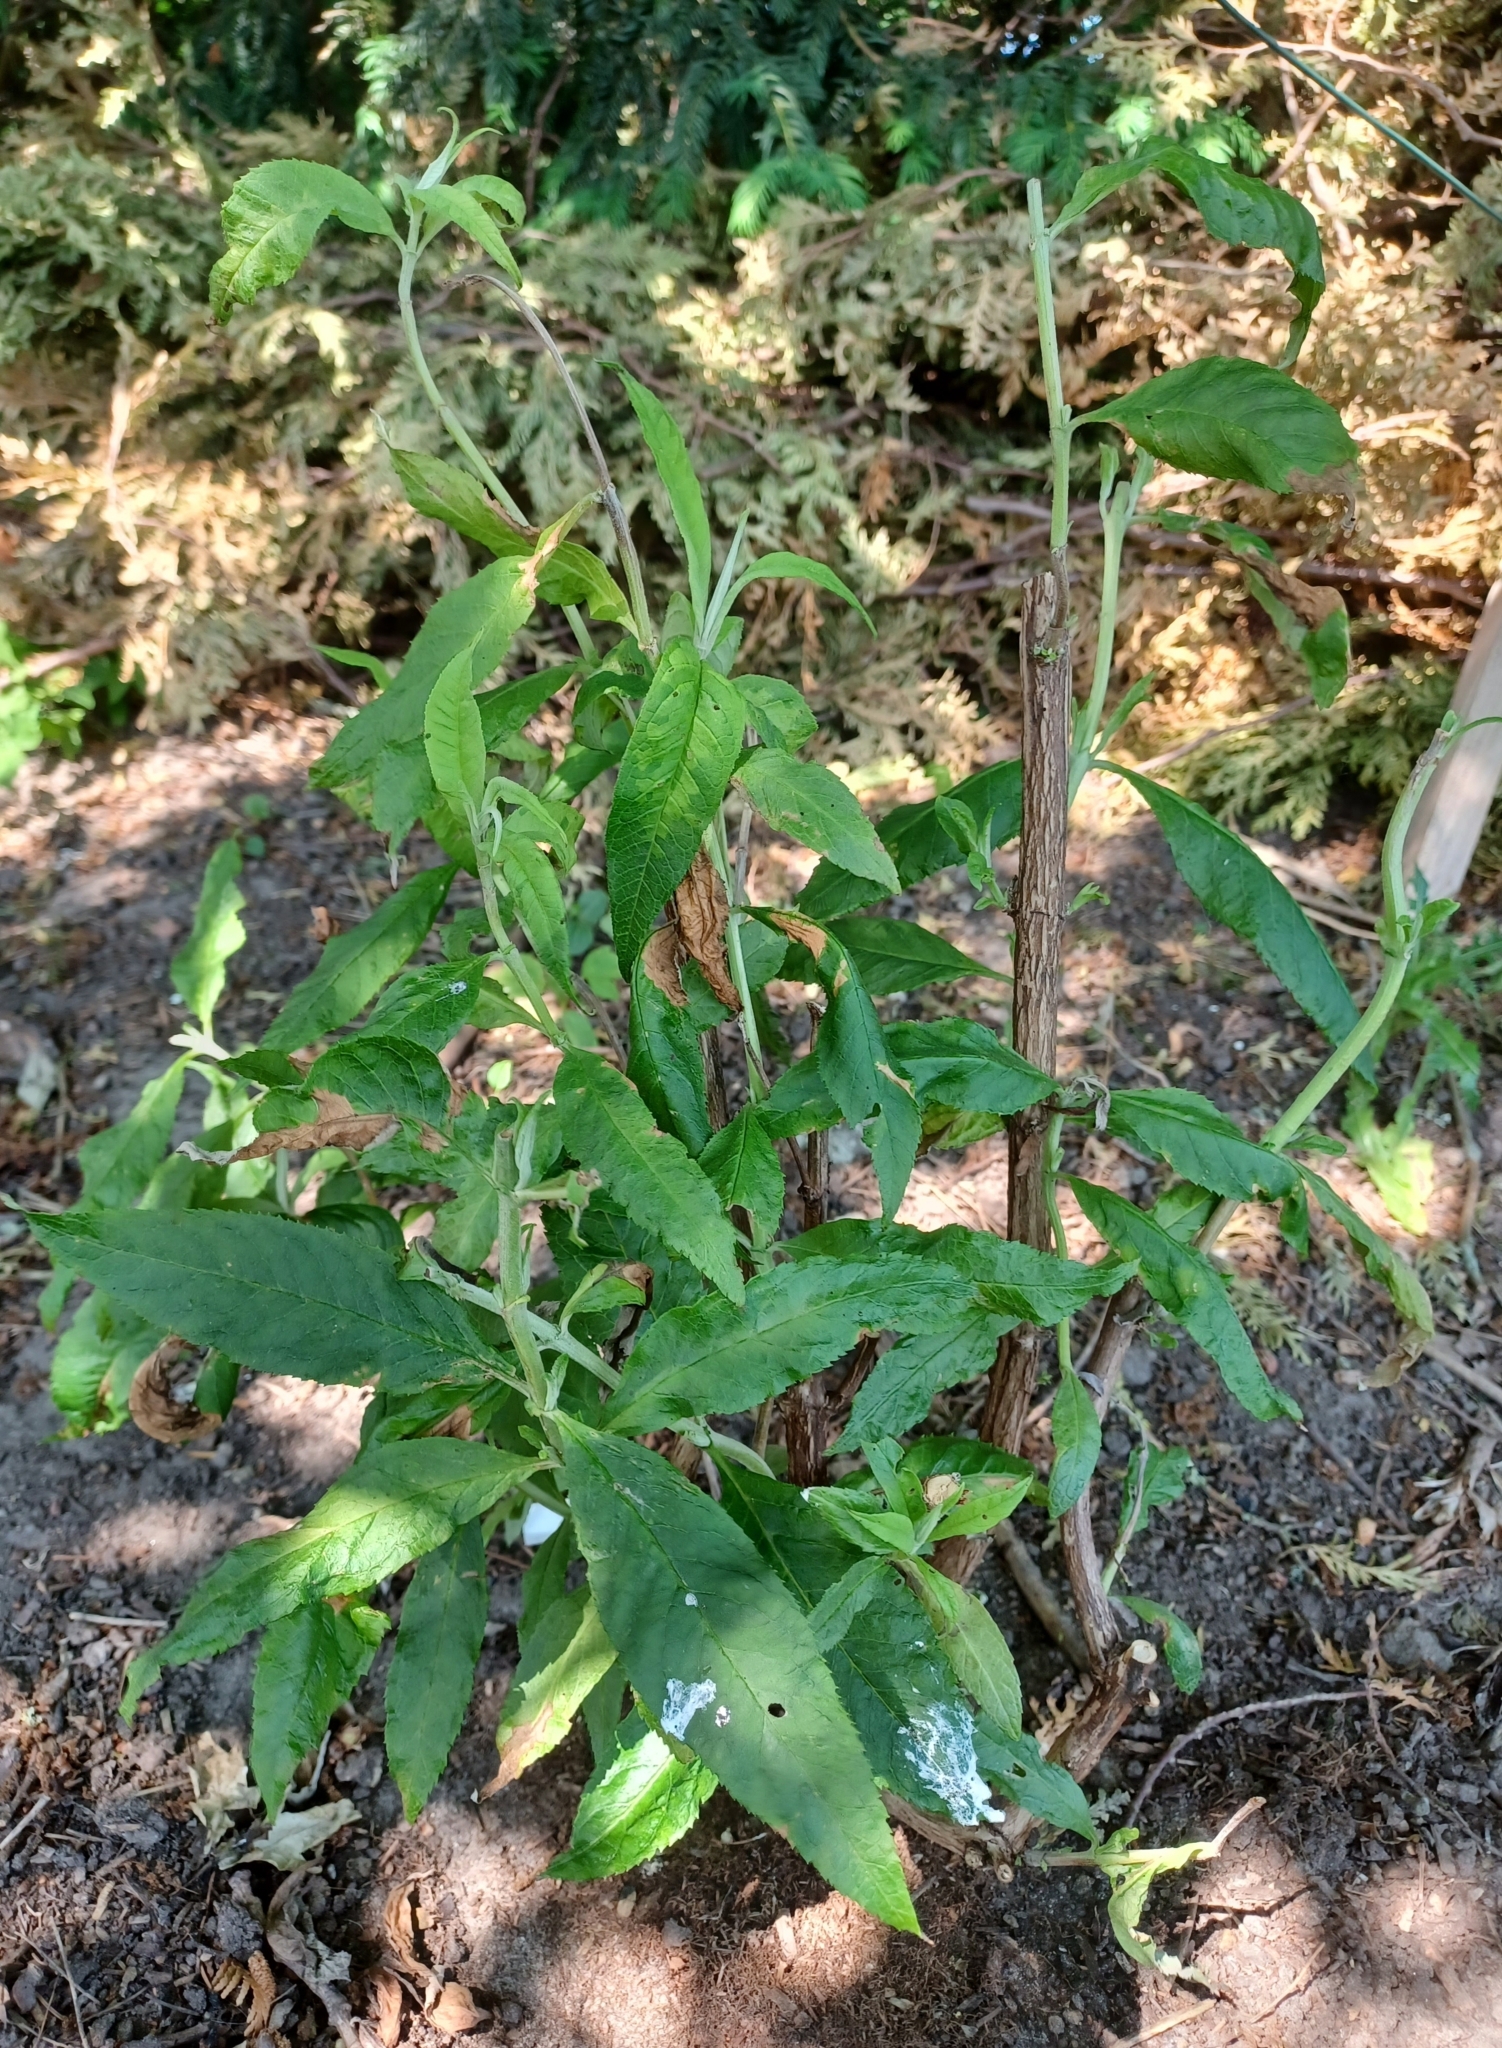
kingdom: Plantae
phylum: Tracheophyta
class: Magnoliopsida
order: Lamiales
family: Scrophulariaceae
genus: Buddleja
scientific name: Buddleja davidii
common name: Butterfly-bush
